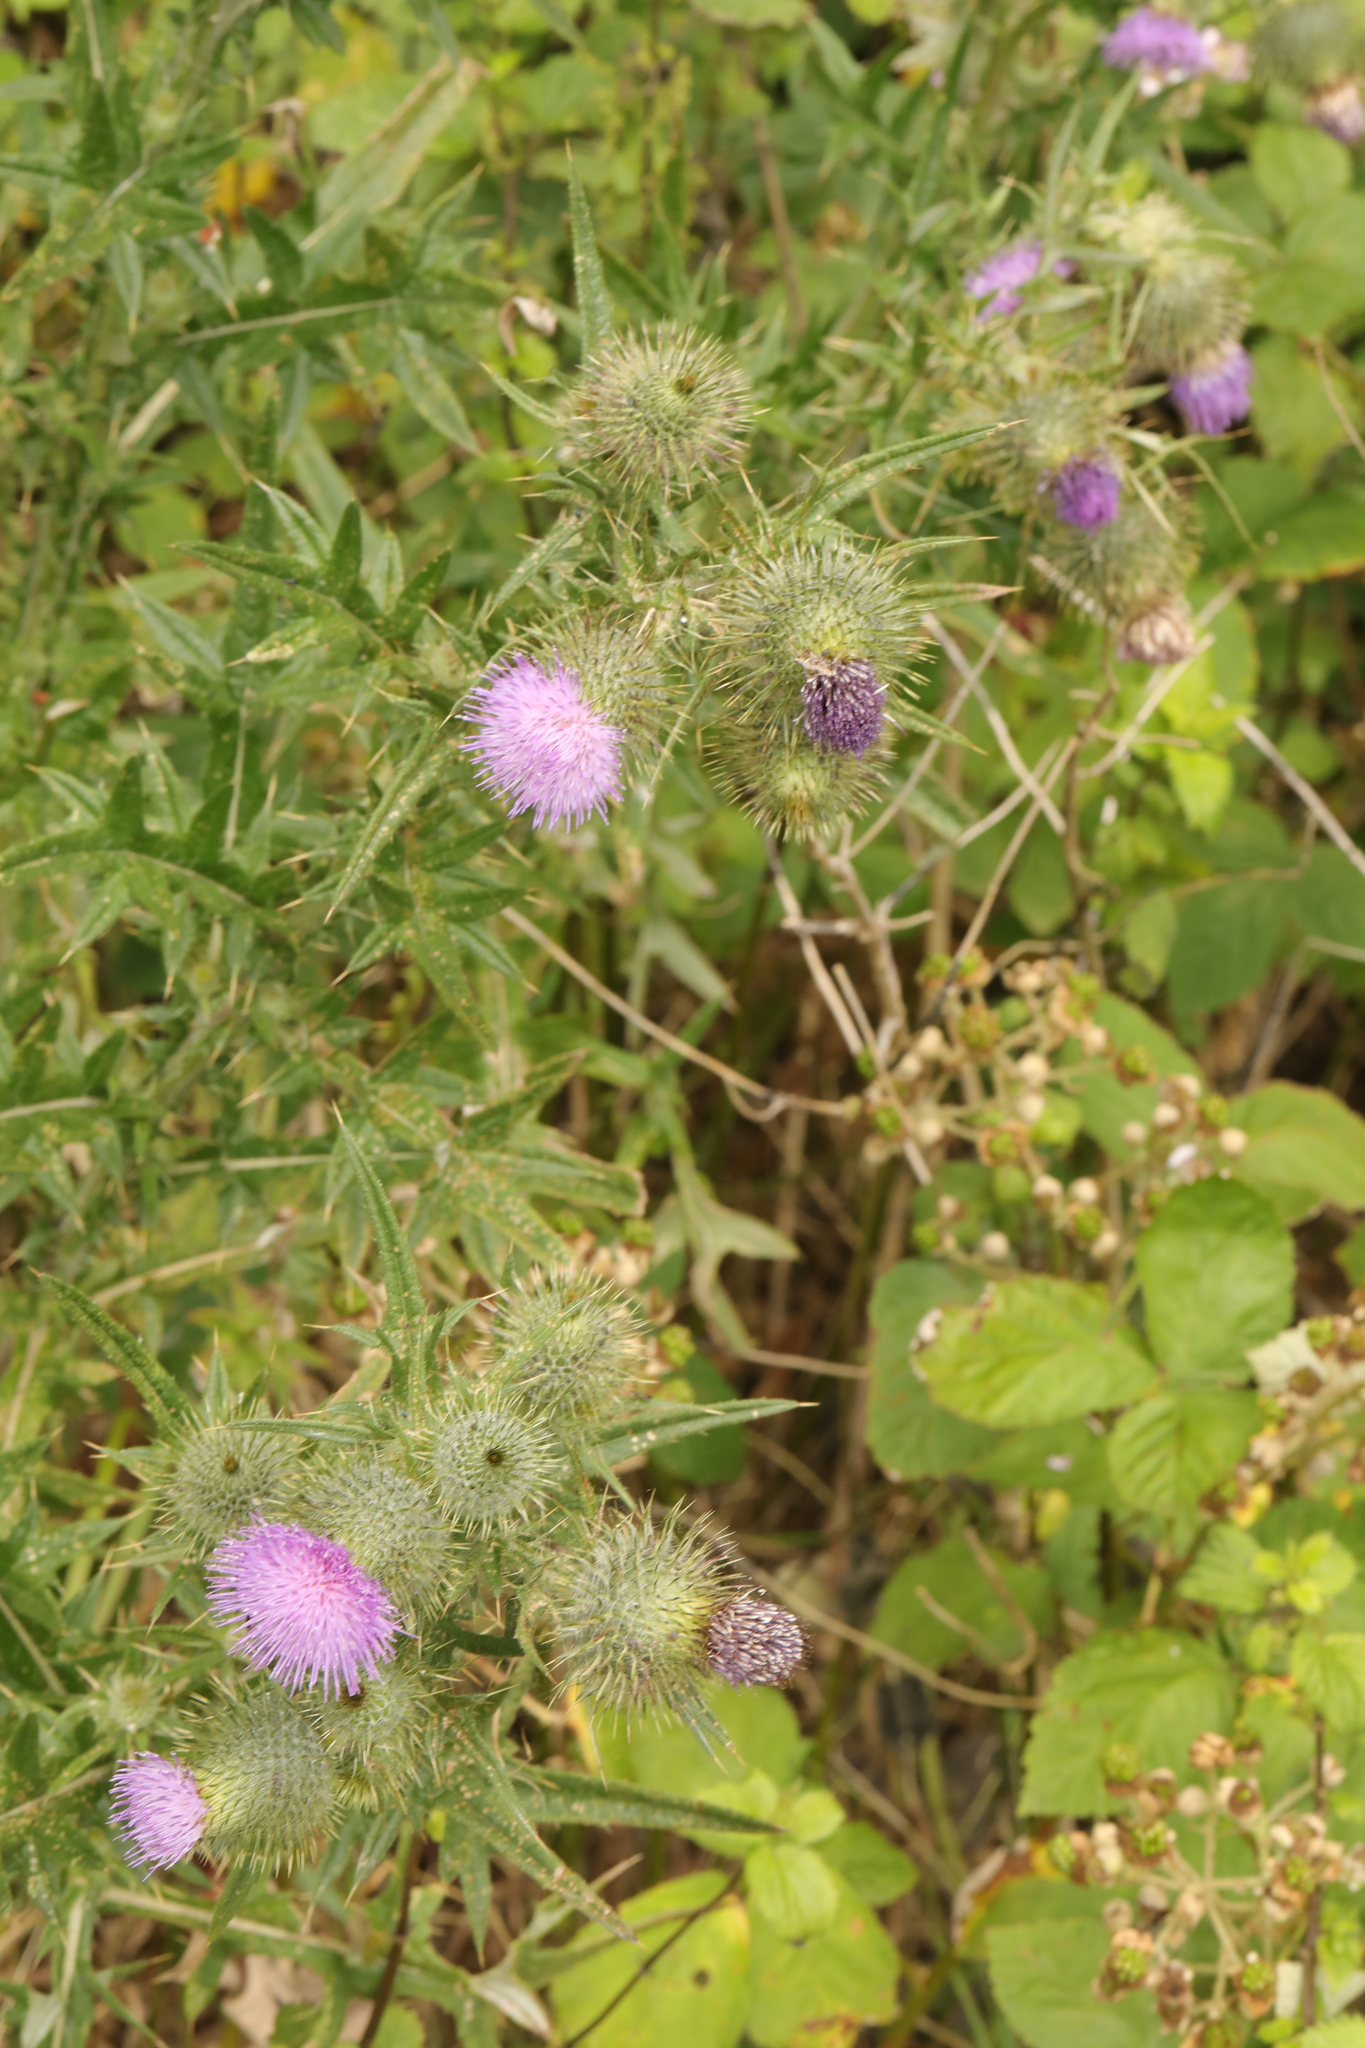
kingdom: Plantae
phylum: Tracheophyta
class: Magnoliopsida
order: Asterales
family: Asteraceae
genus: Cirsium
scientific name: Cirsium vulgare
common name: Bull thistle
